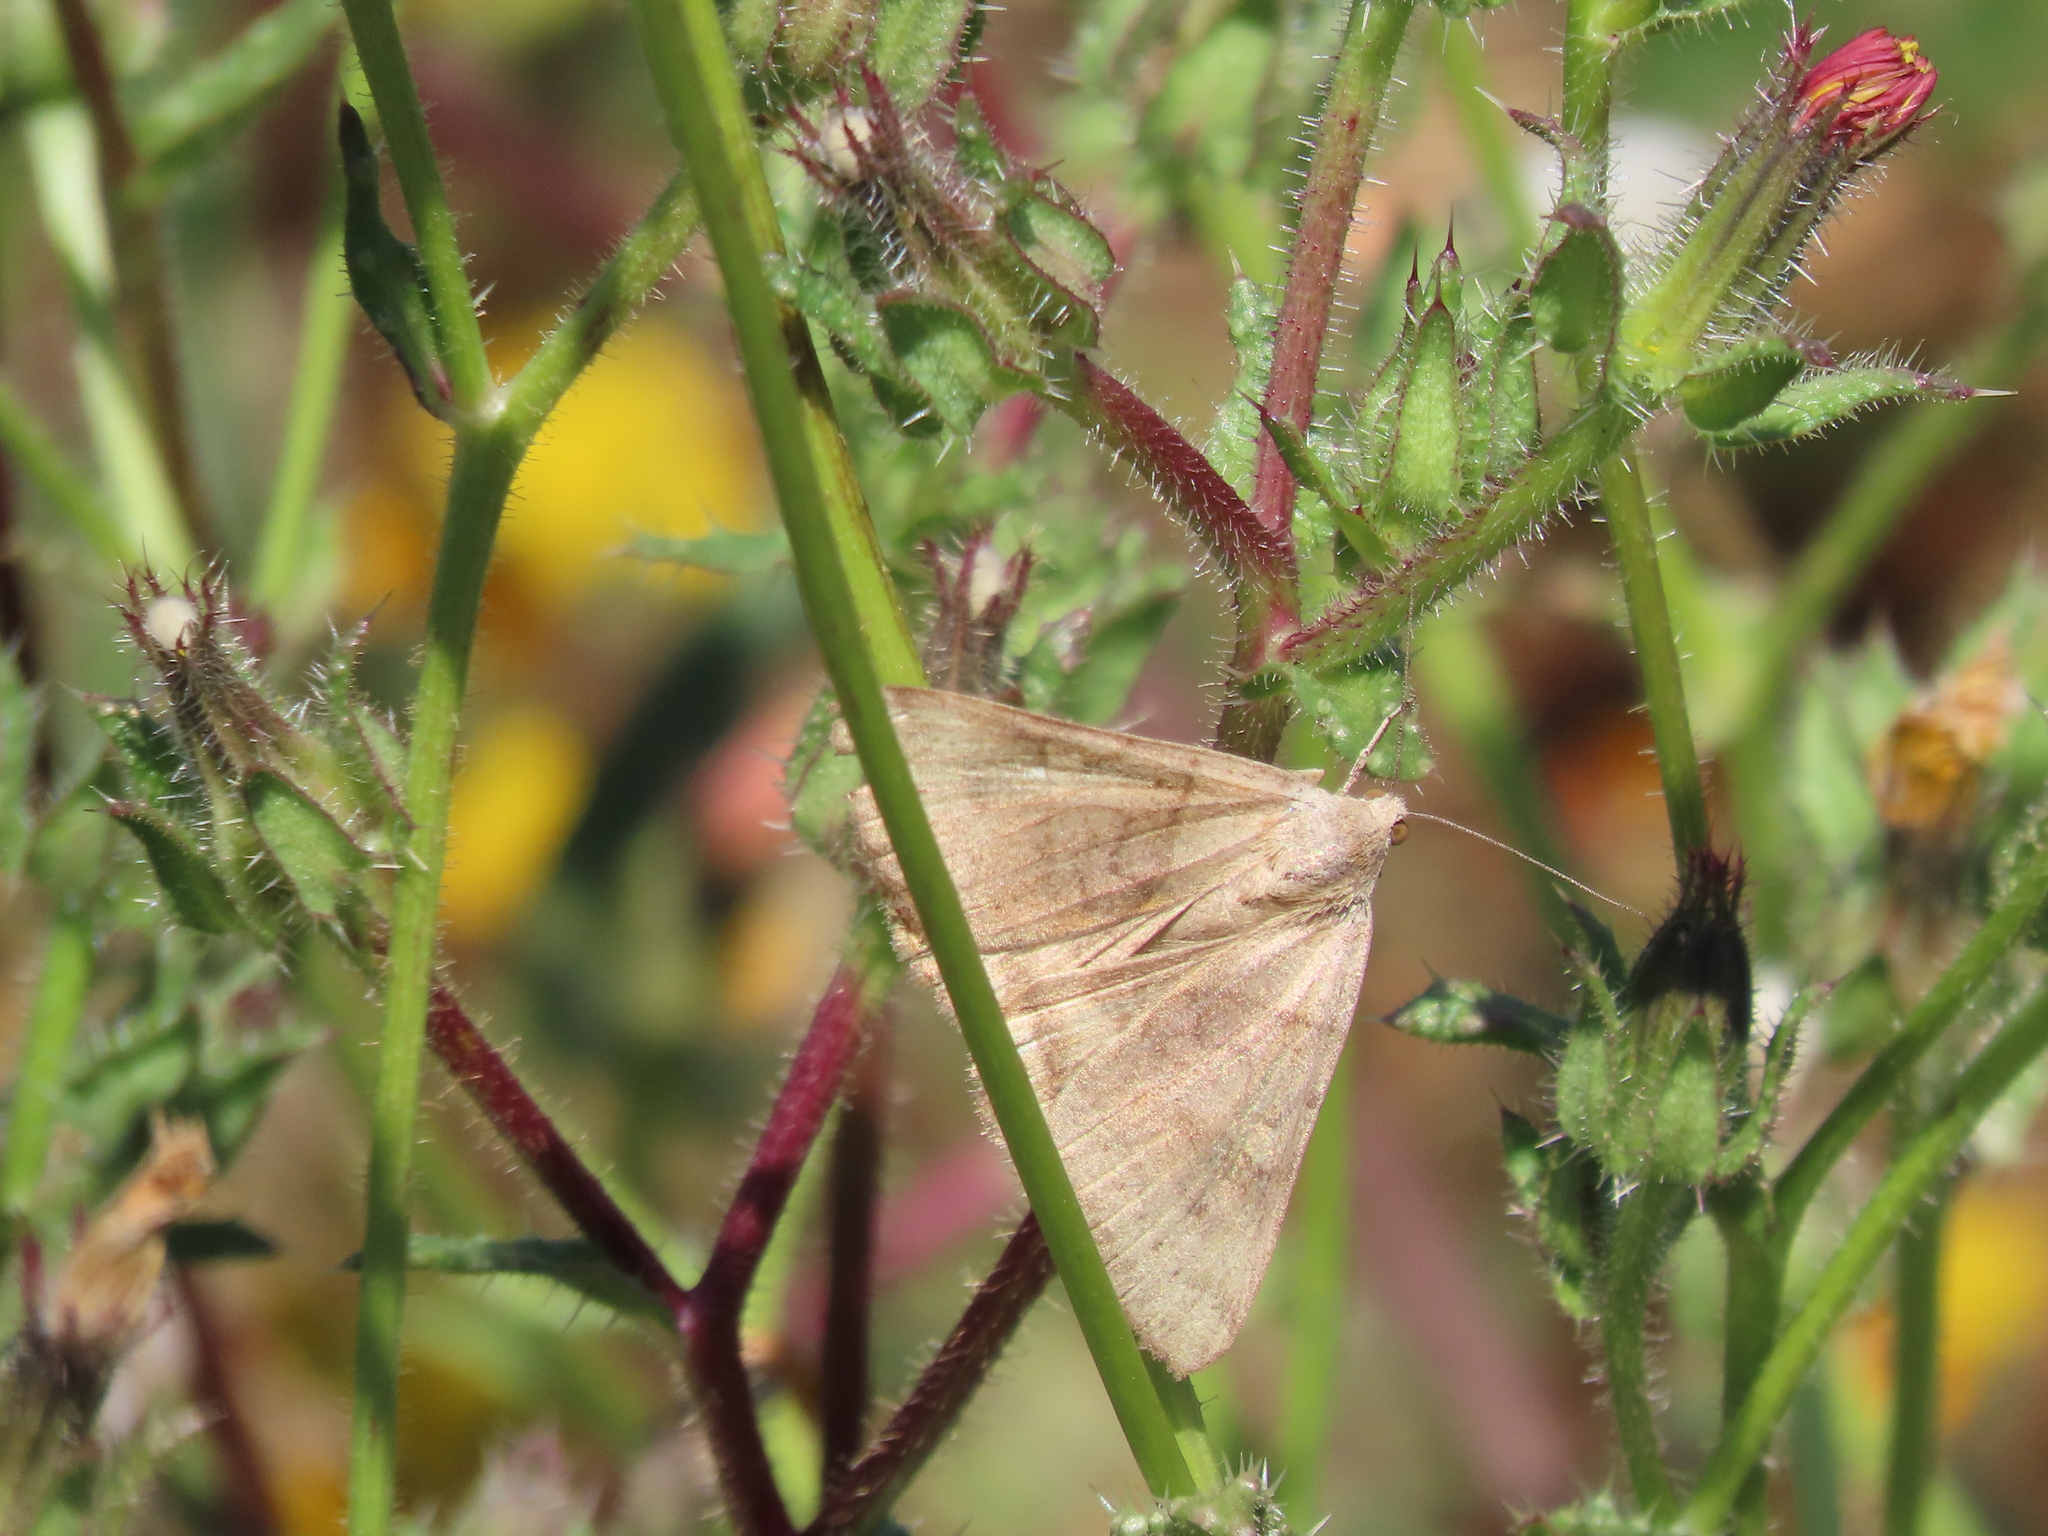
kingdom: Animalia
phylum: Arthropoda
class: Insecta
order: Lepidoptera
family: Erebidae
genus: Caenurgina
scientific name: Caenurgina erechtea
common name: Forage looper moth
